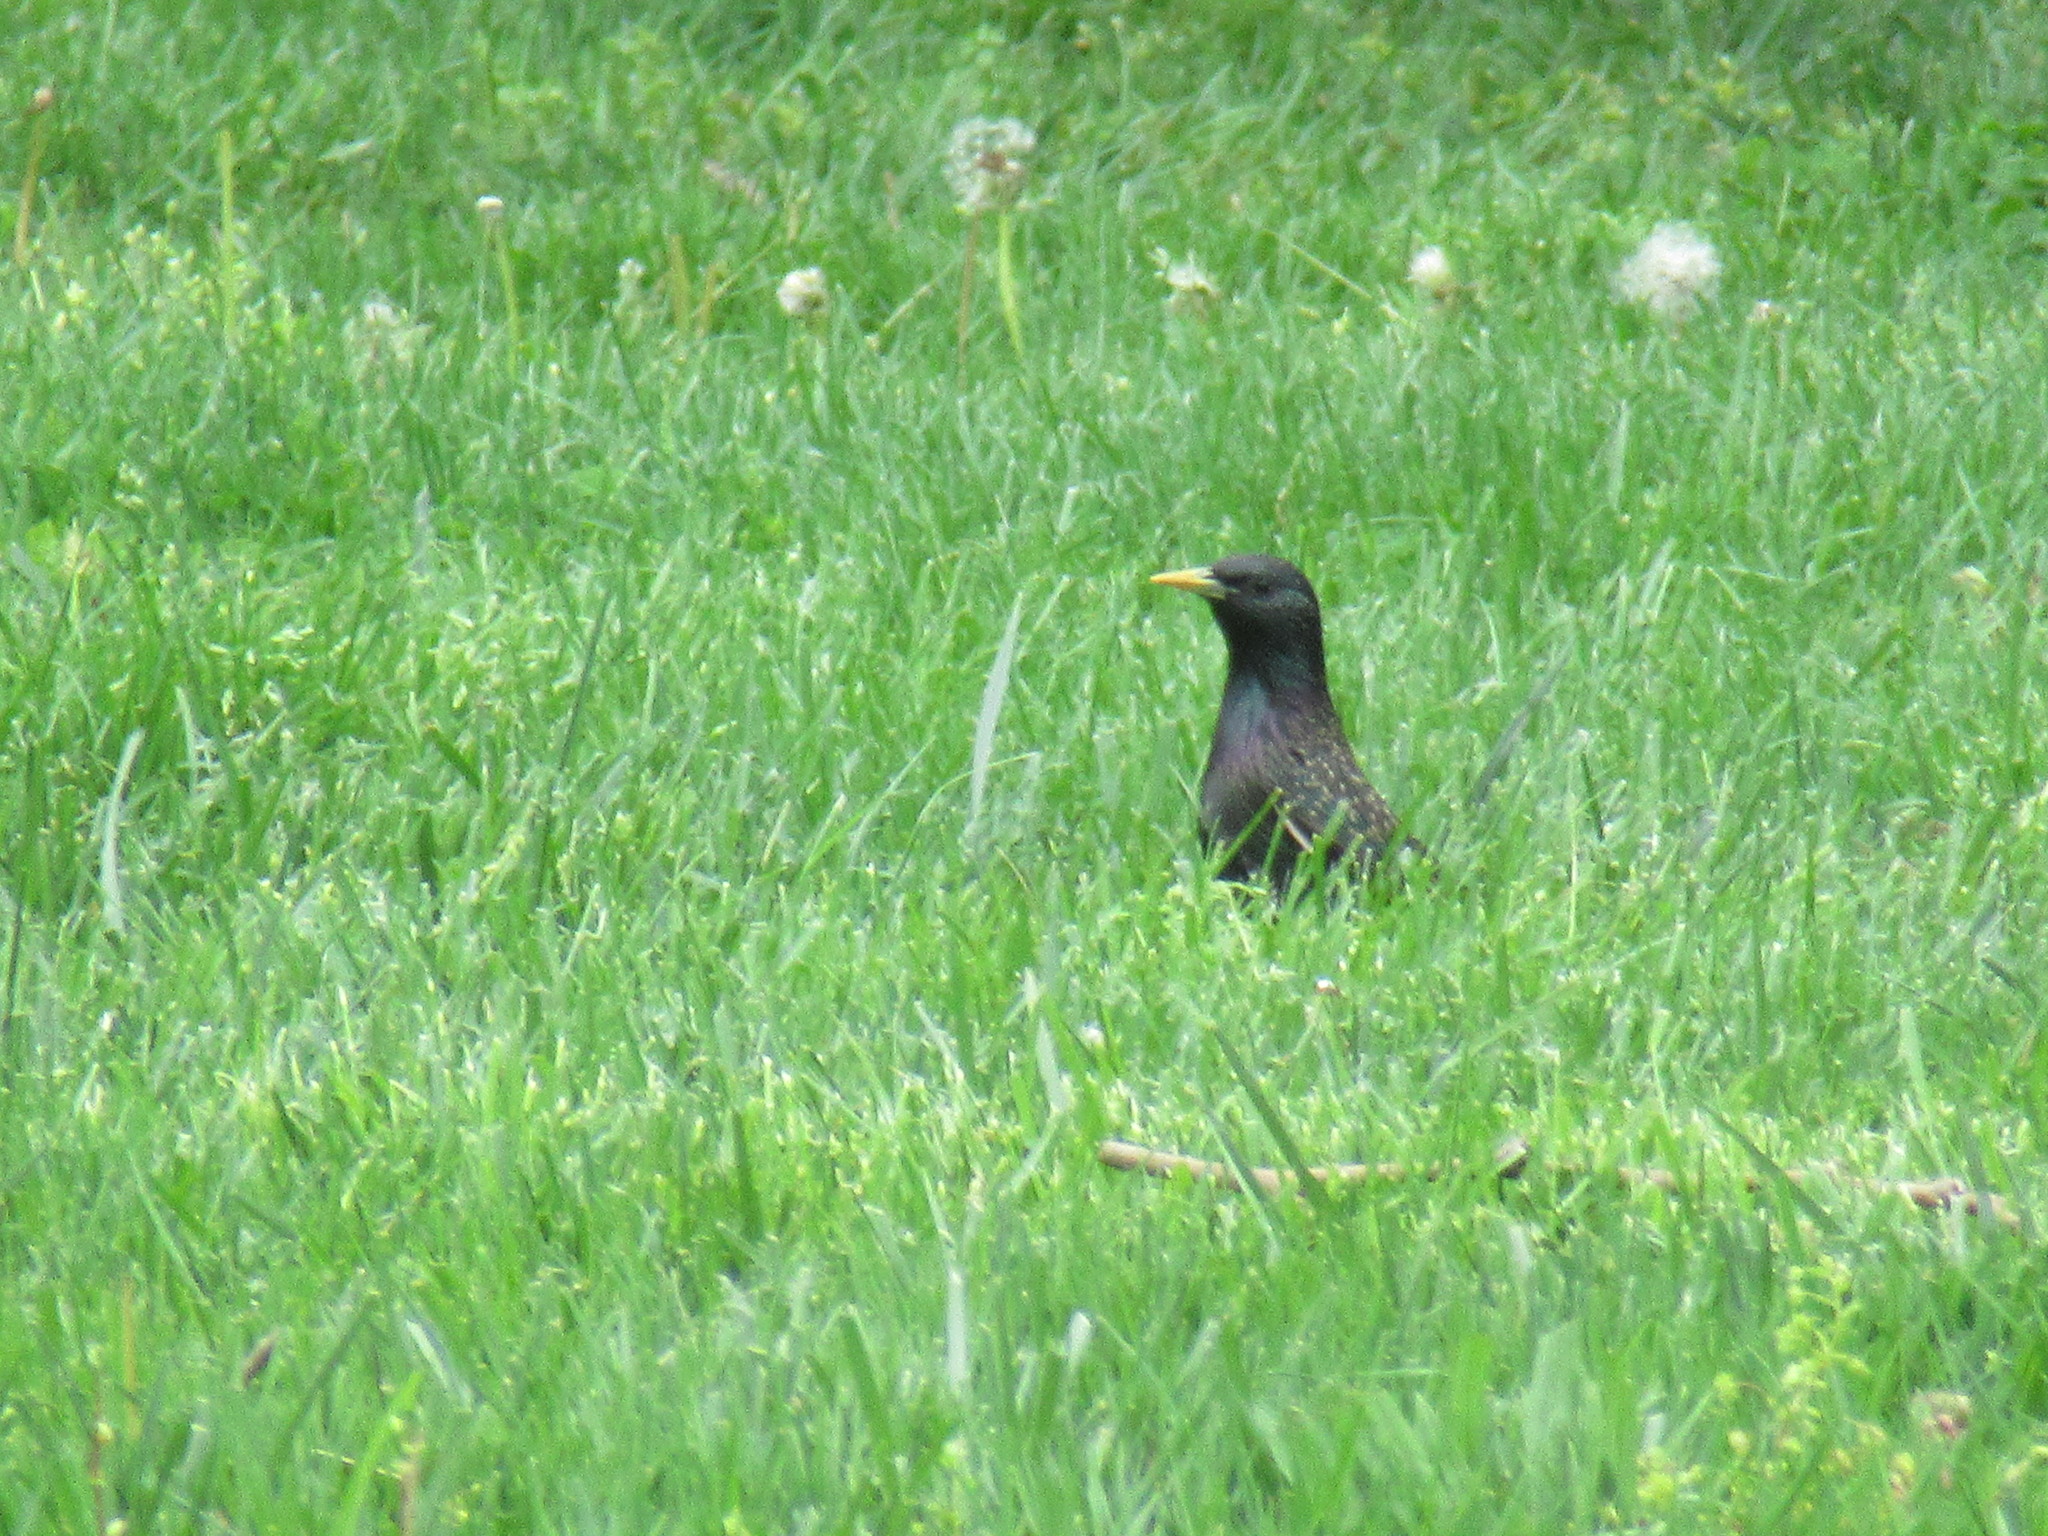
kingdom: Animalia
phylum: Chordata
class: Aves
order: Passeriformes
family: Sturnidae
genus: Sturnus
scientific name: Sturnus vulgaris
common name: Common starling
